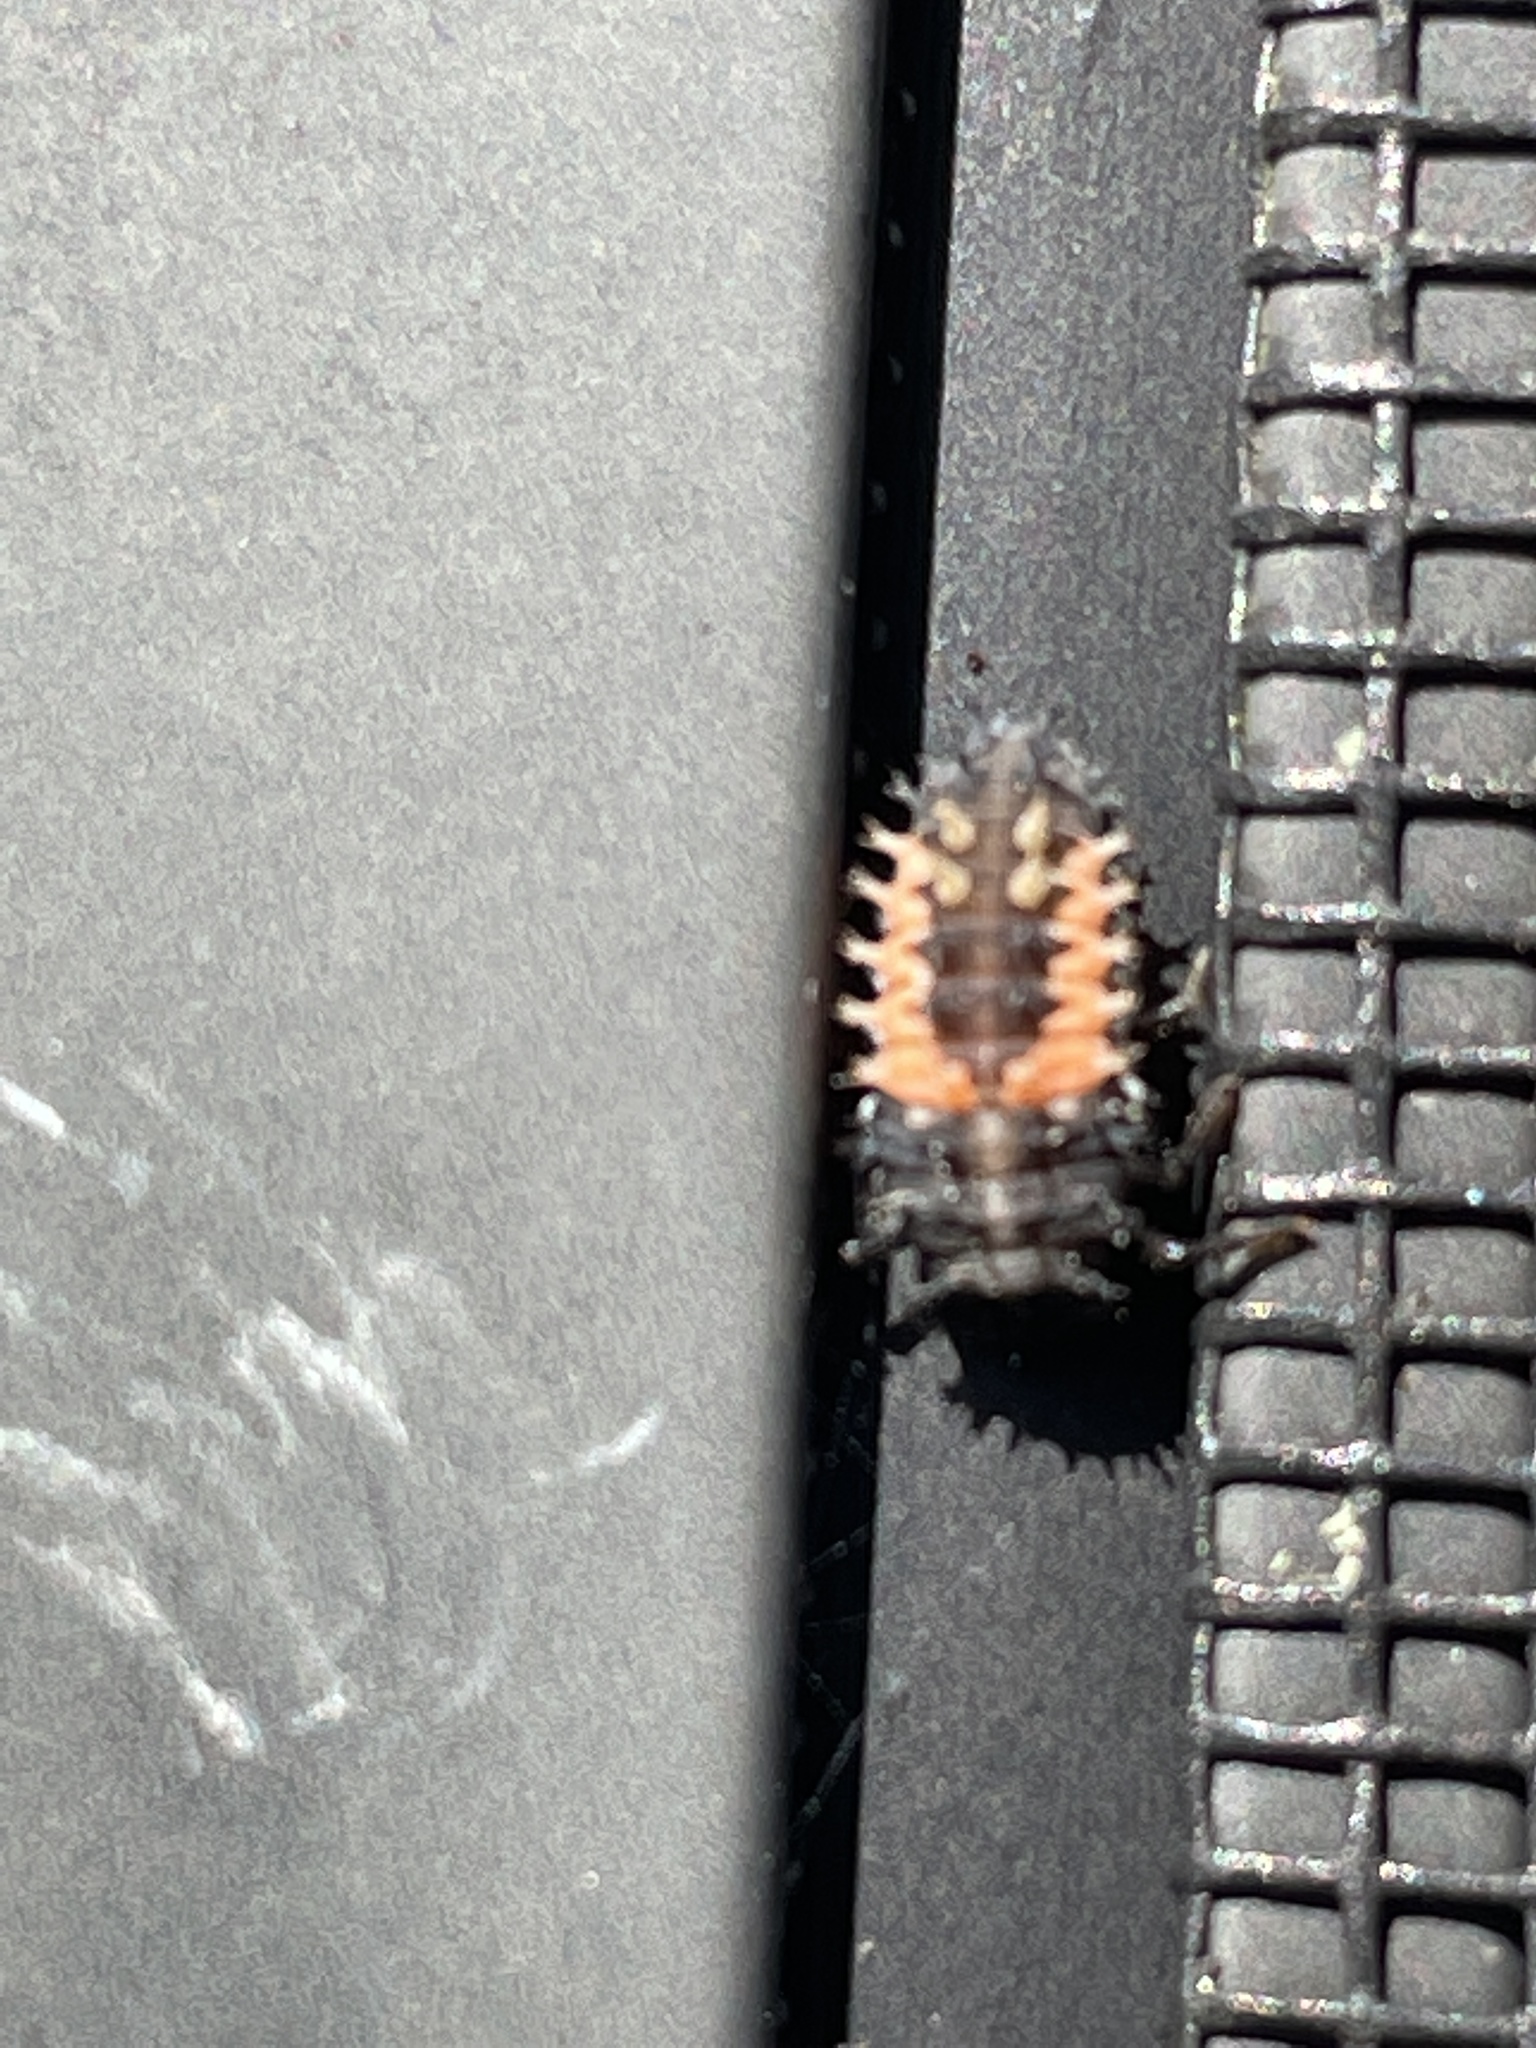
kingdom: Animalia
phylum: Arthropoda
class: Insecta
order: Coleoptera
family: Coccinellidae
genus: Harmonia
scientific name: Harmonia axyridis
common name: Harlequin ladybird
